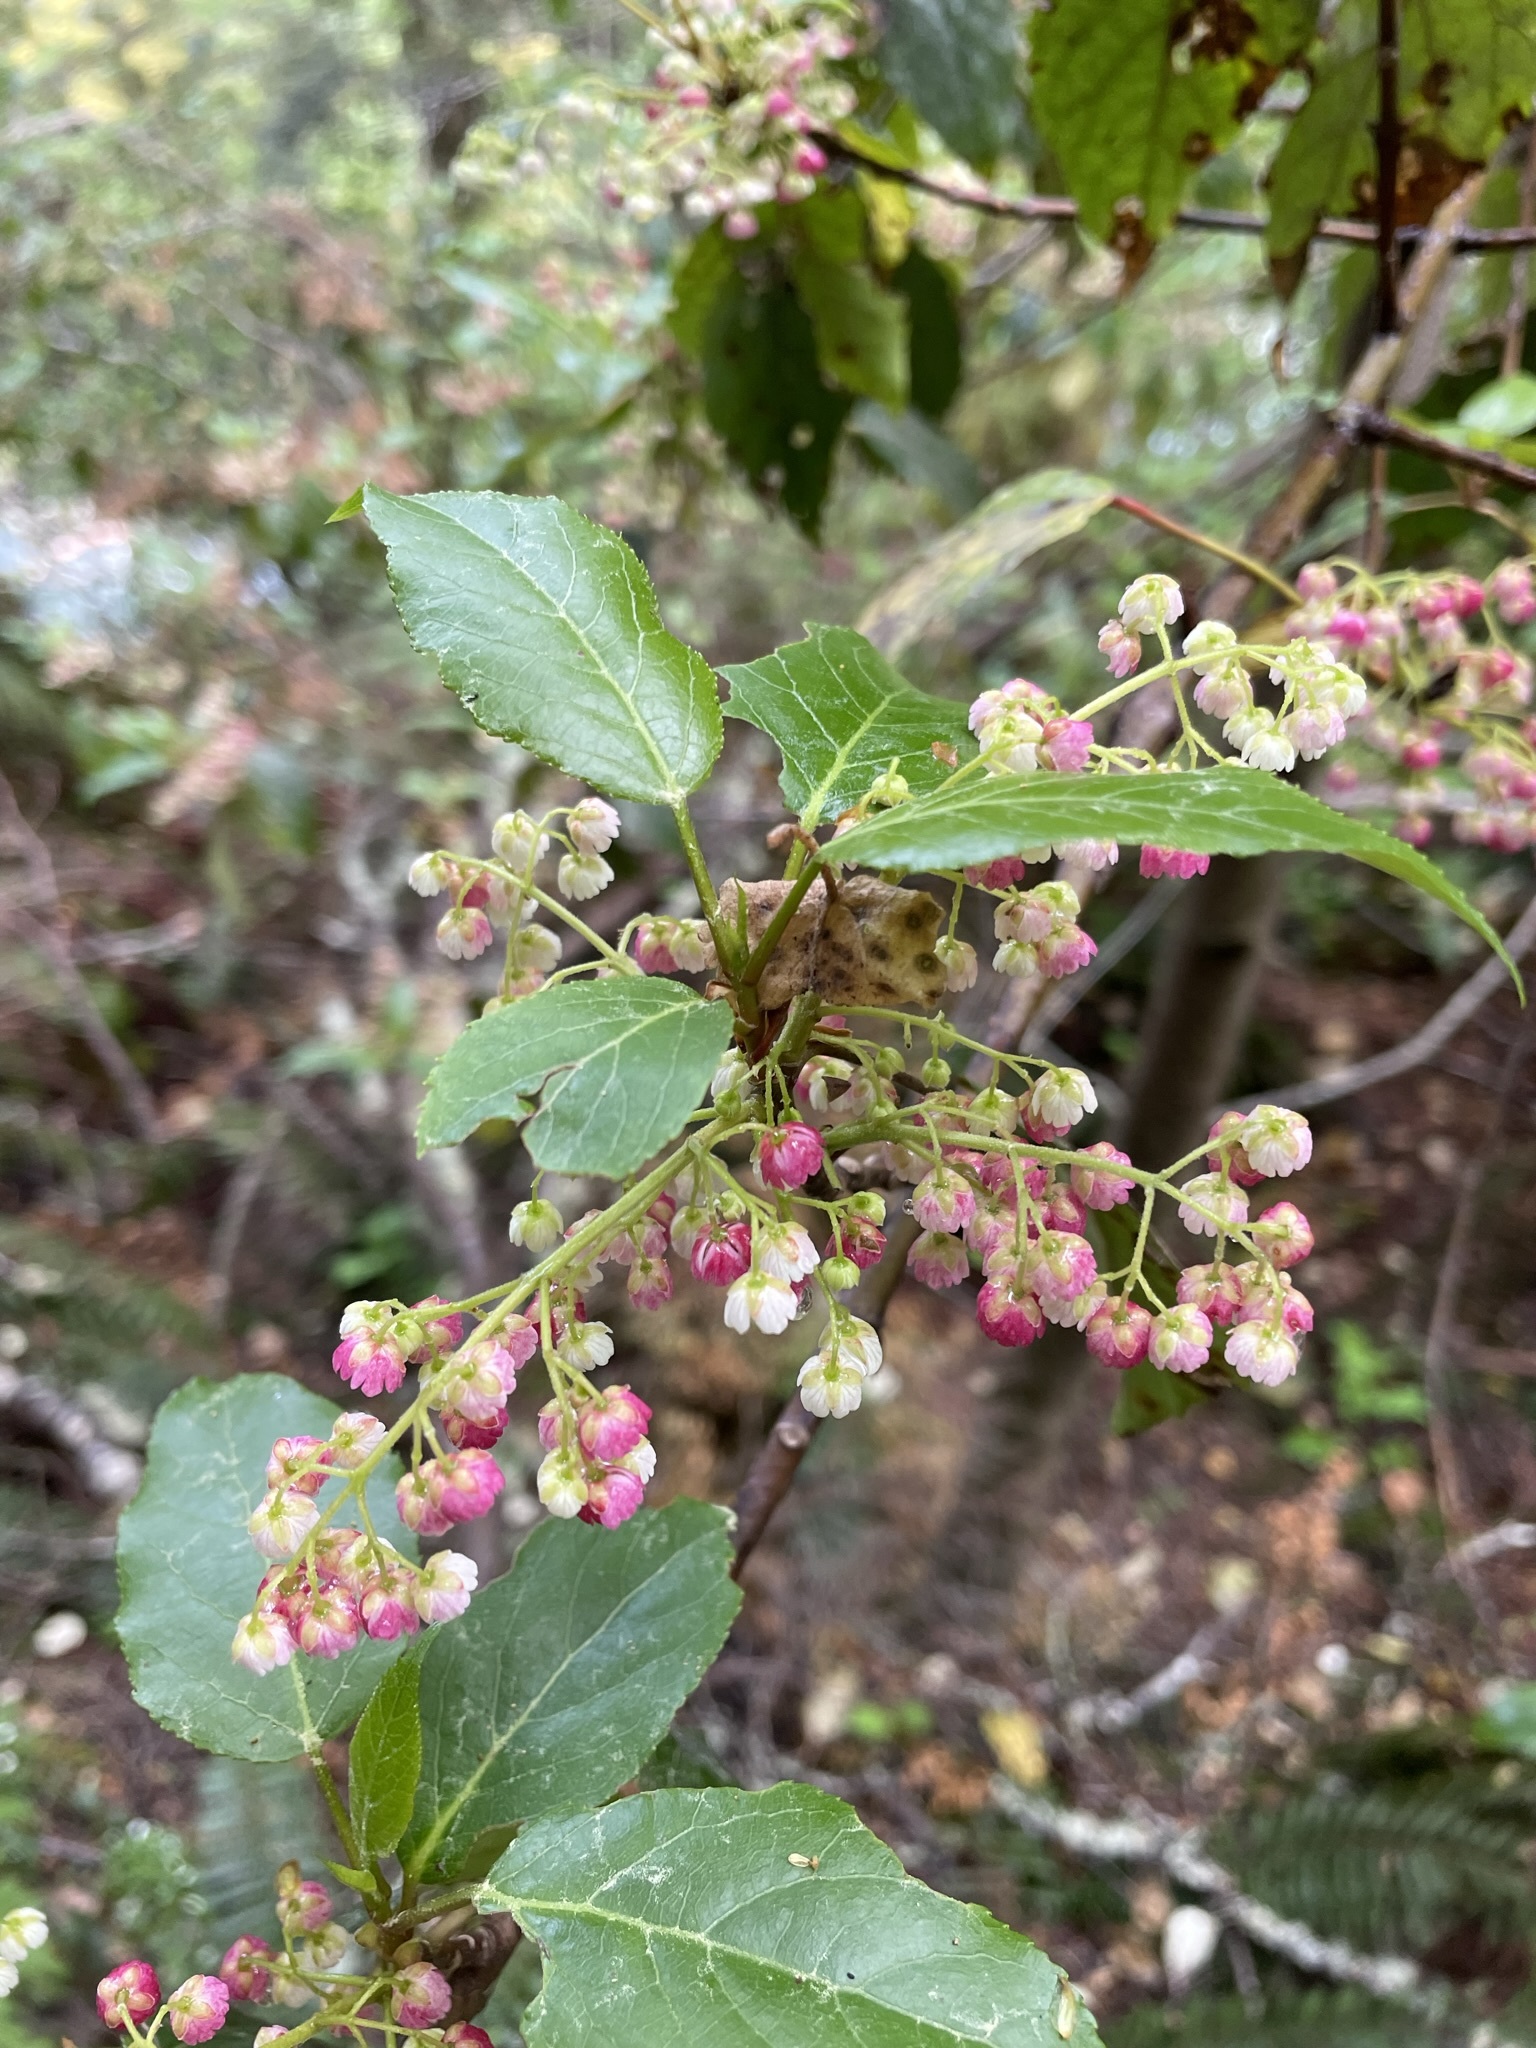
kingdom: Plantae
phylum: Tracheophyta
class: Magnoliopsida
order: Oxalidales
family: Elaeocarpaceae
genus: Aristotelia
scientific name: Aristotelia serrata
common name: New zealand wineberry
